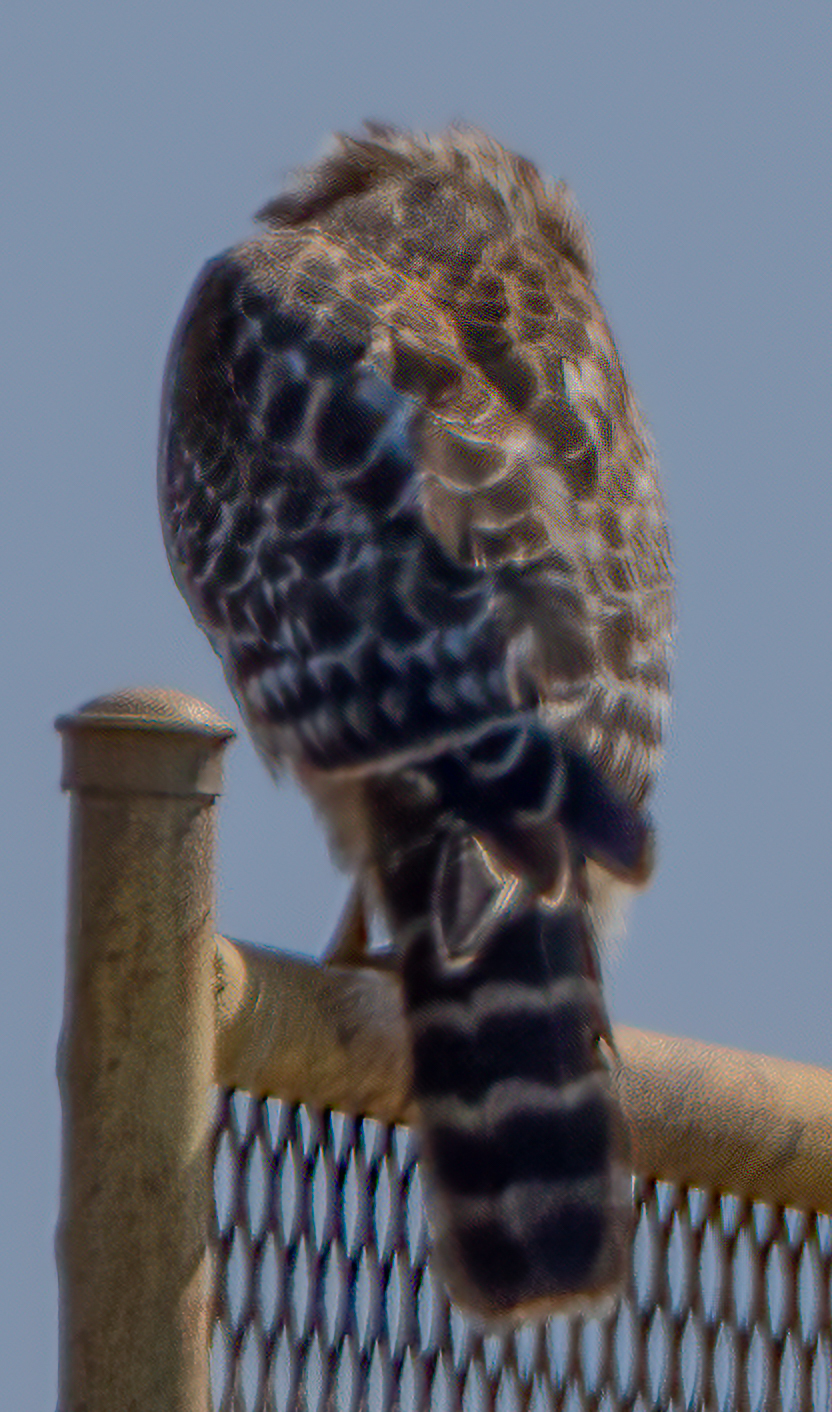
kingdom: Animalia
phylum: Chordata
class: Aves
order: Accipitriformes
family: Accipitridae
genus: Buteo
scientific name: Buteo lineatus
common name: Red-shouldered hawk
